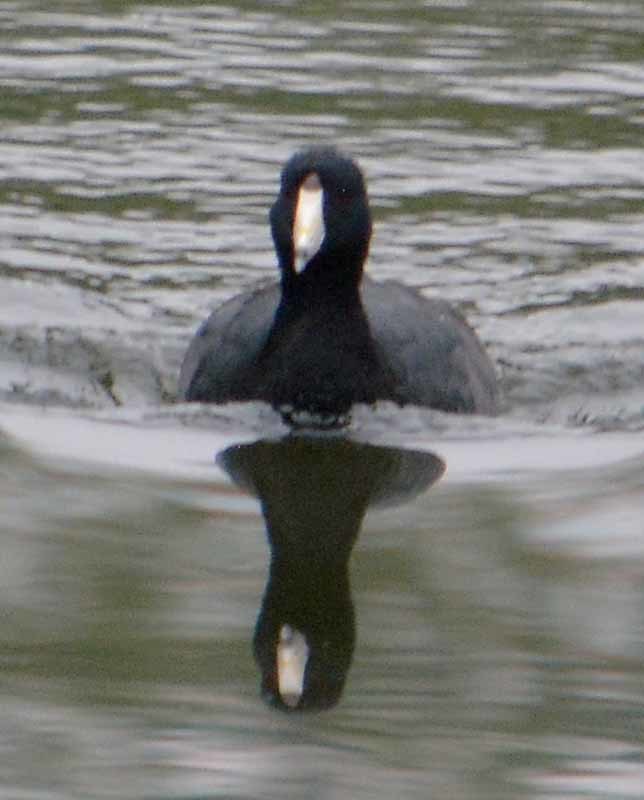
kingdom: Animalia
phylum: Chordata
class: Aves
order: Gruiformes
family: Rallidae
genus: Fulica
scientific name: Fulica americana
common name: American coot
